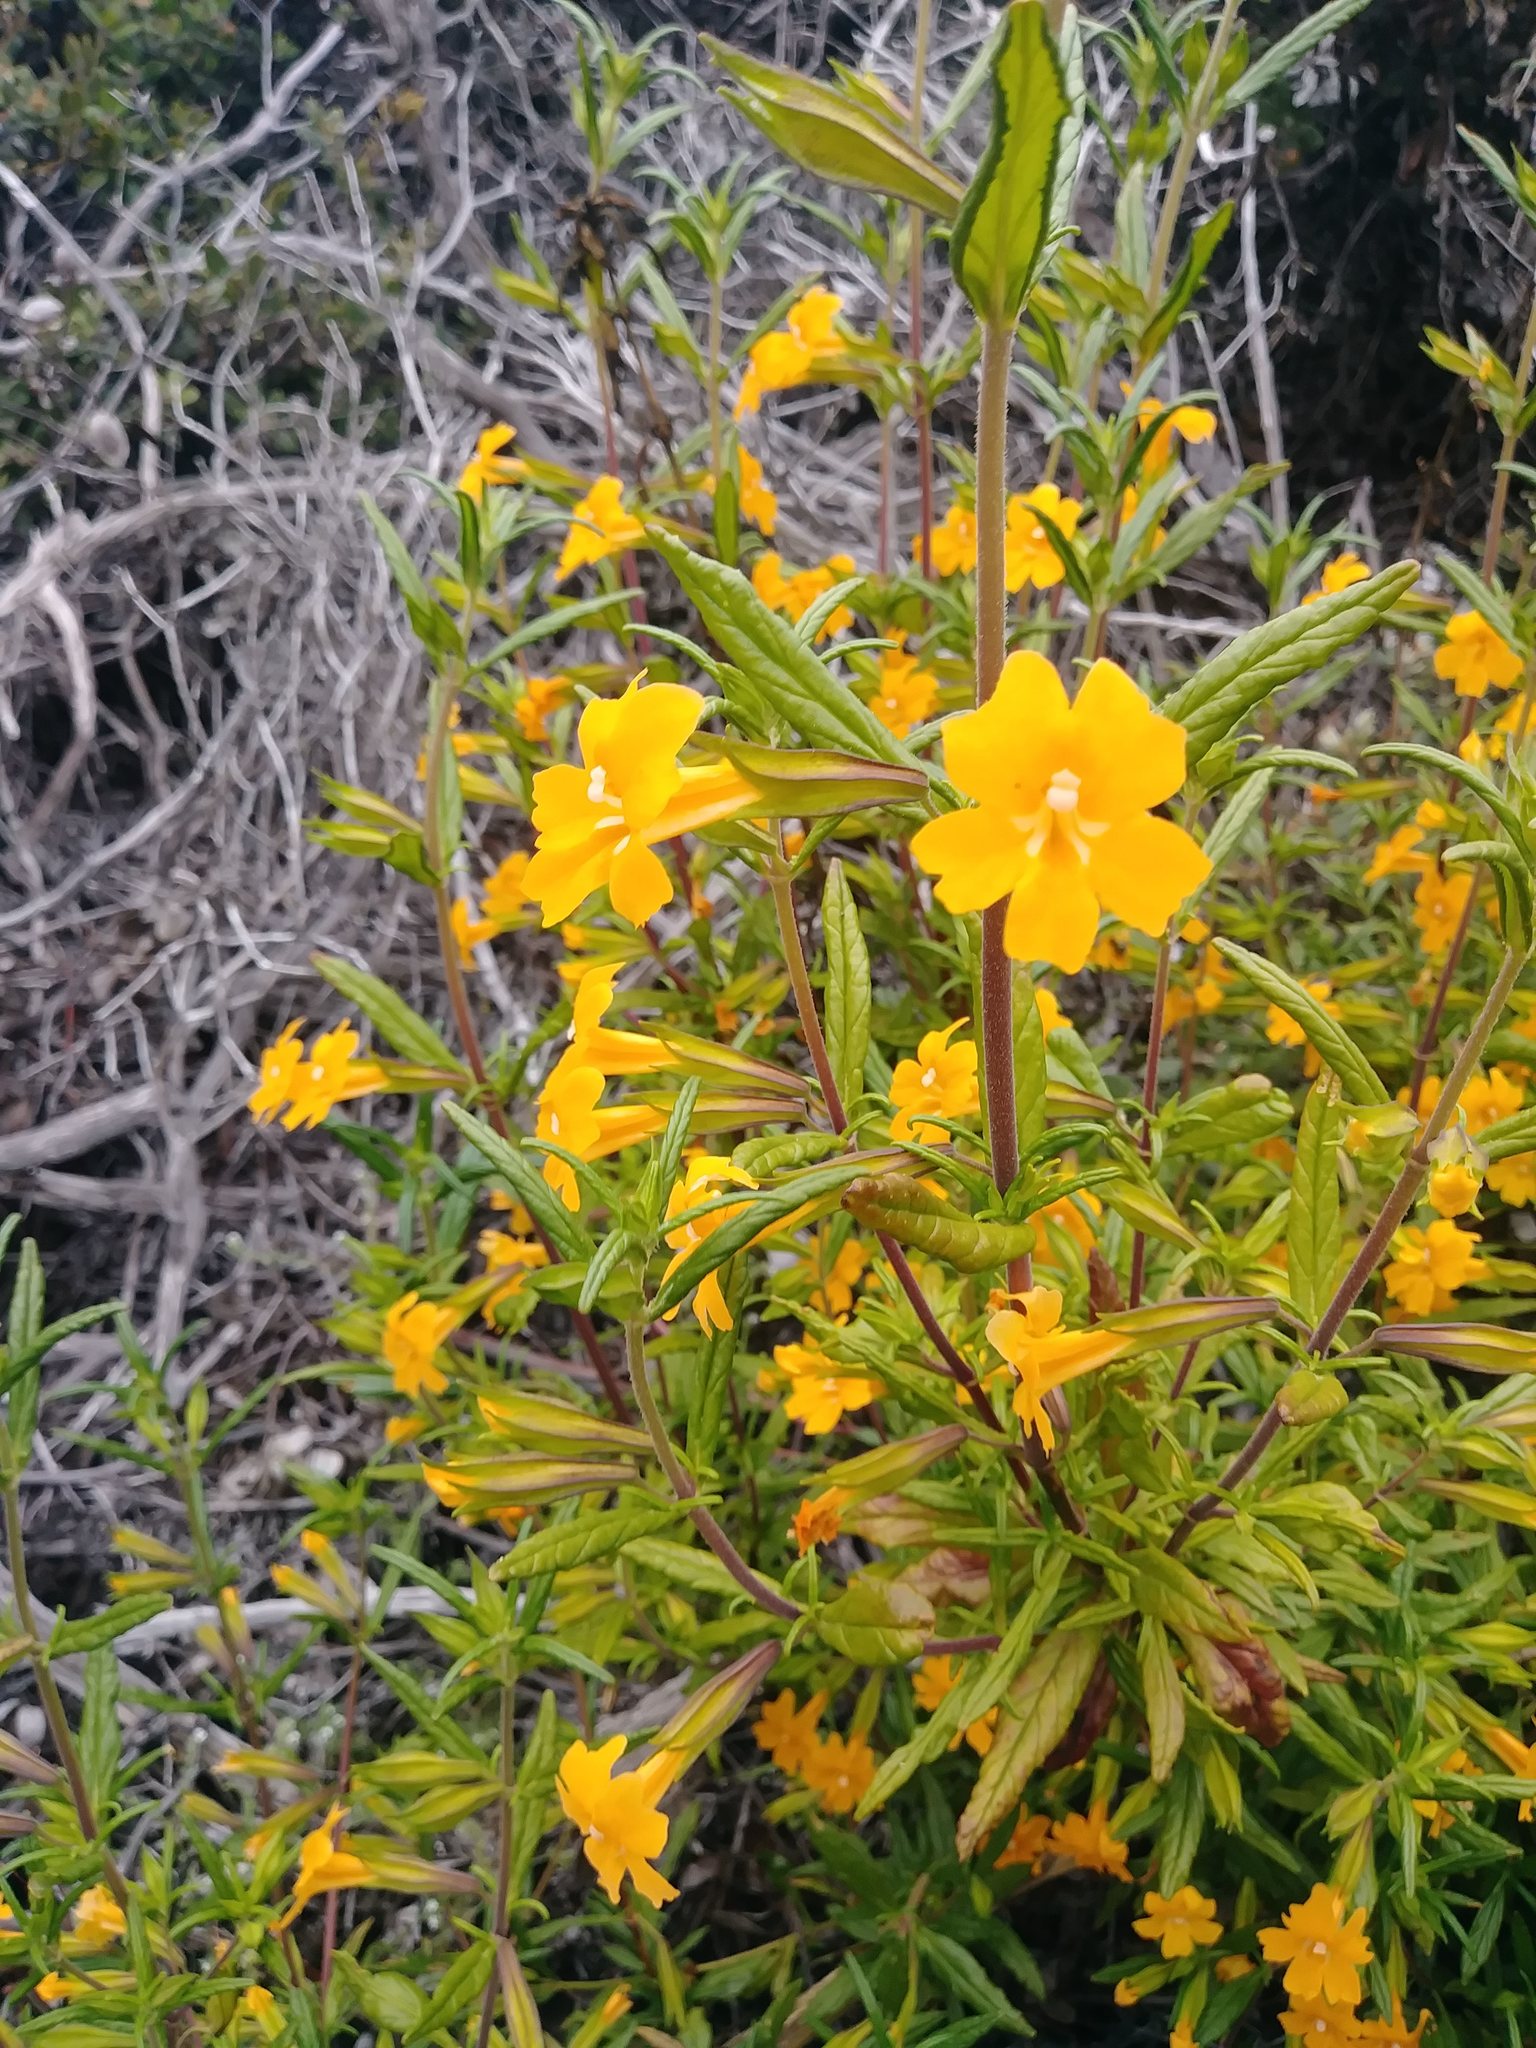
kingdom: Plantae
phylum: Tracheophyta
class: Magnoliopsida
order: Lamiales
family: Phrymaceae
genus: Diplacus
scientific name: Diplacus aurantiacus
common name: Bush monkey-flower
